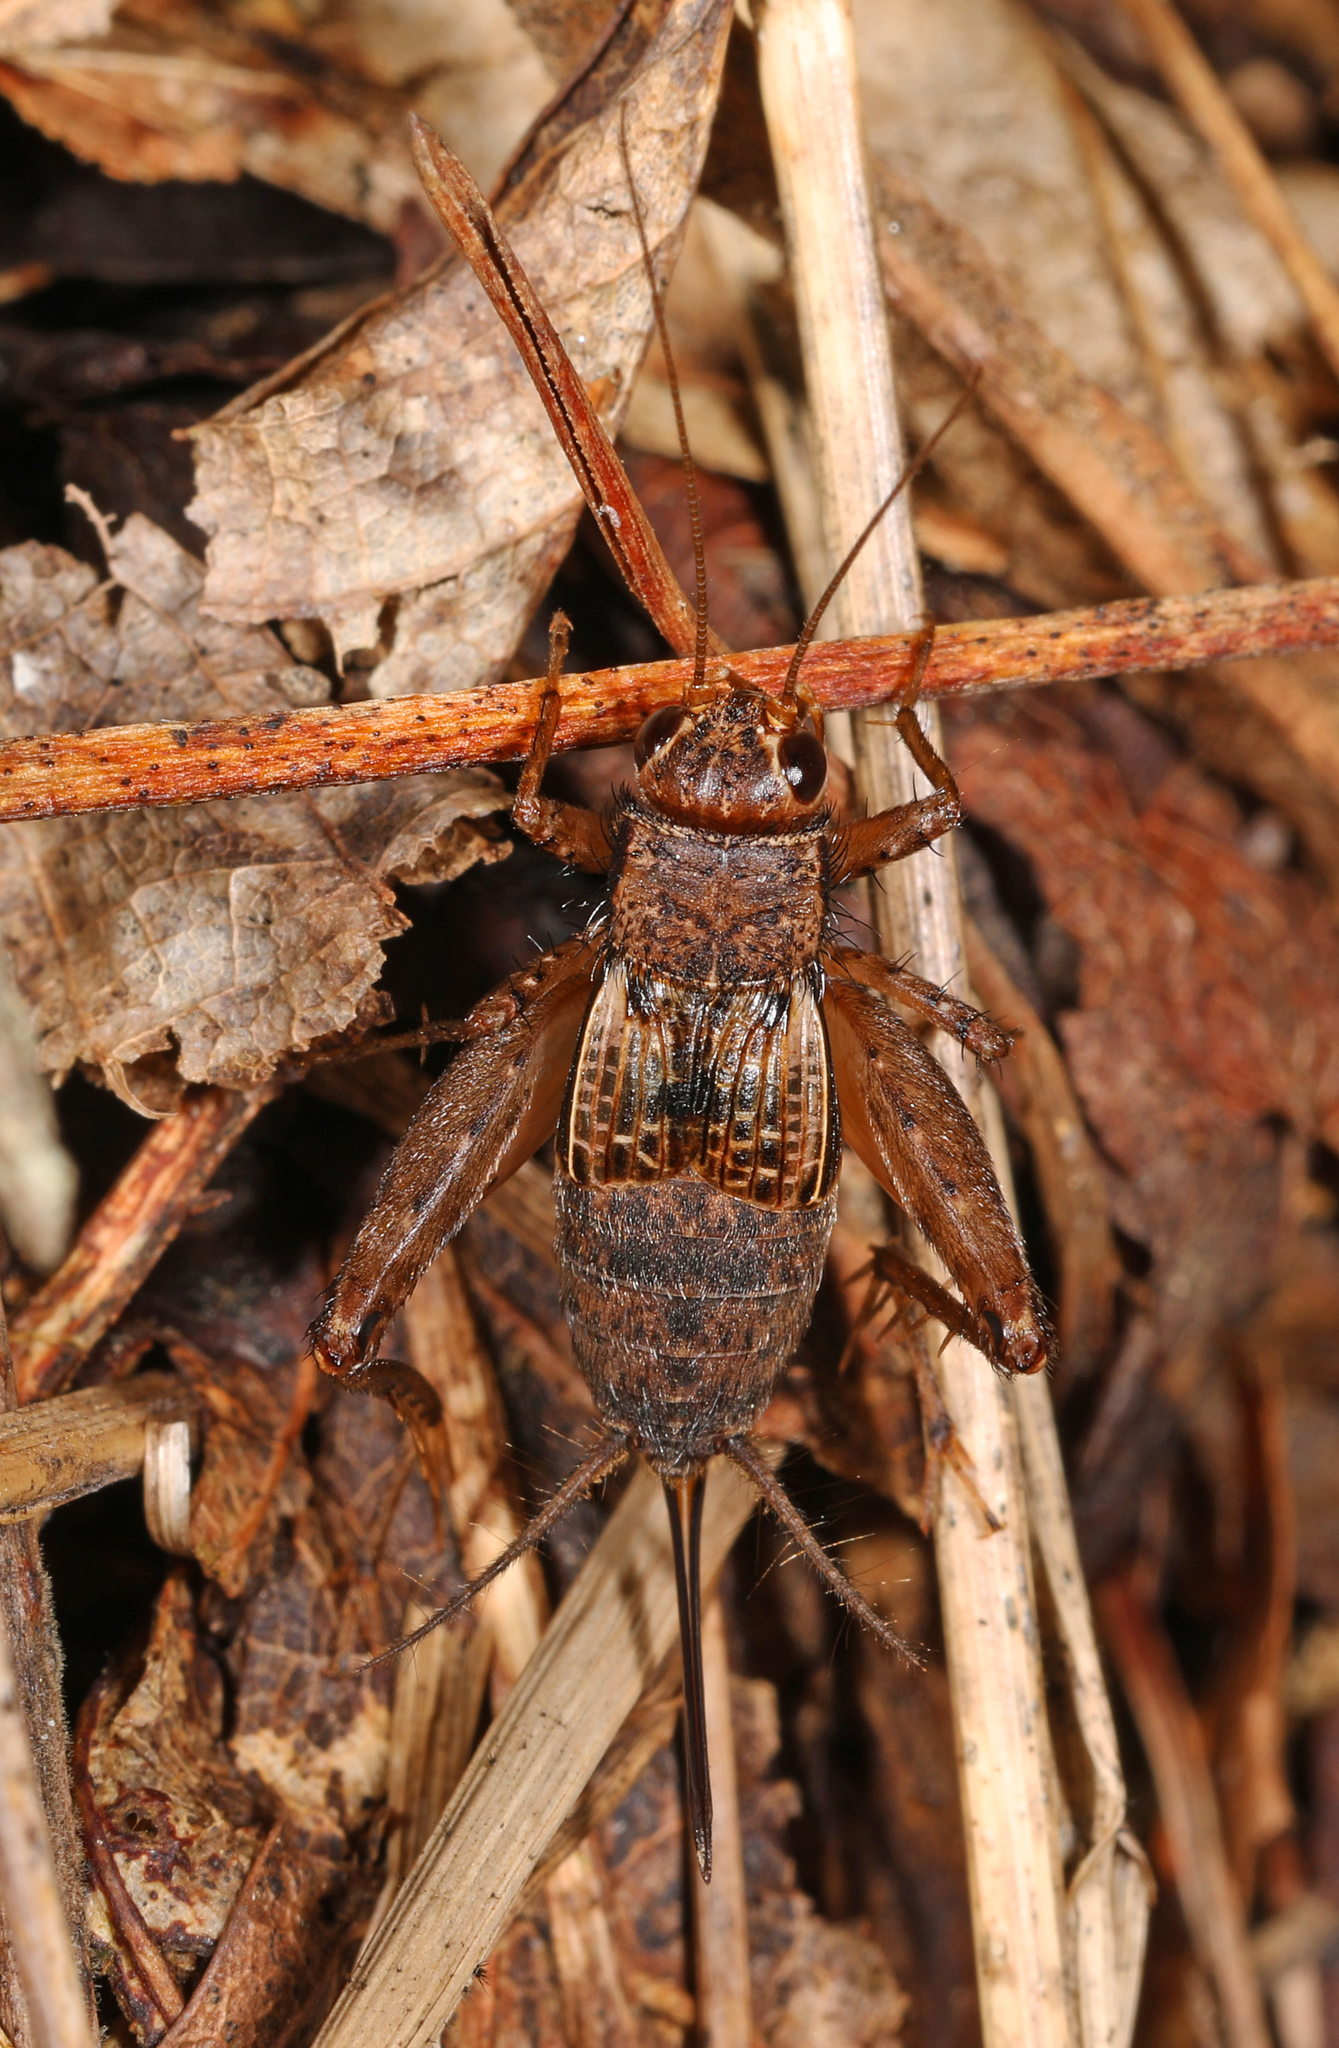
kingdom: Animalia
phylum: Arthropoda
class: Insecta
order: Orthoptera
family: Trigonidiidae
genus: Allonemobius
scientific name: Allonemobius maculatus
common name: Larger spotted ground cricket
